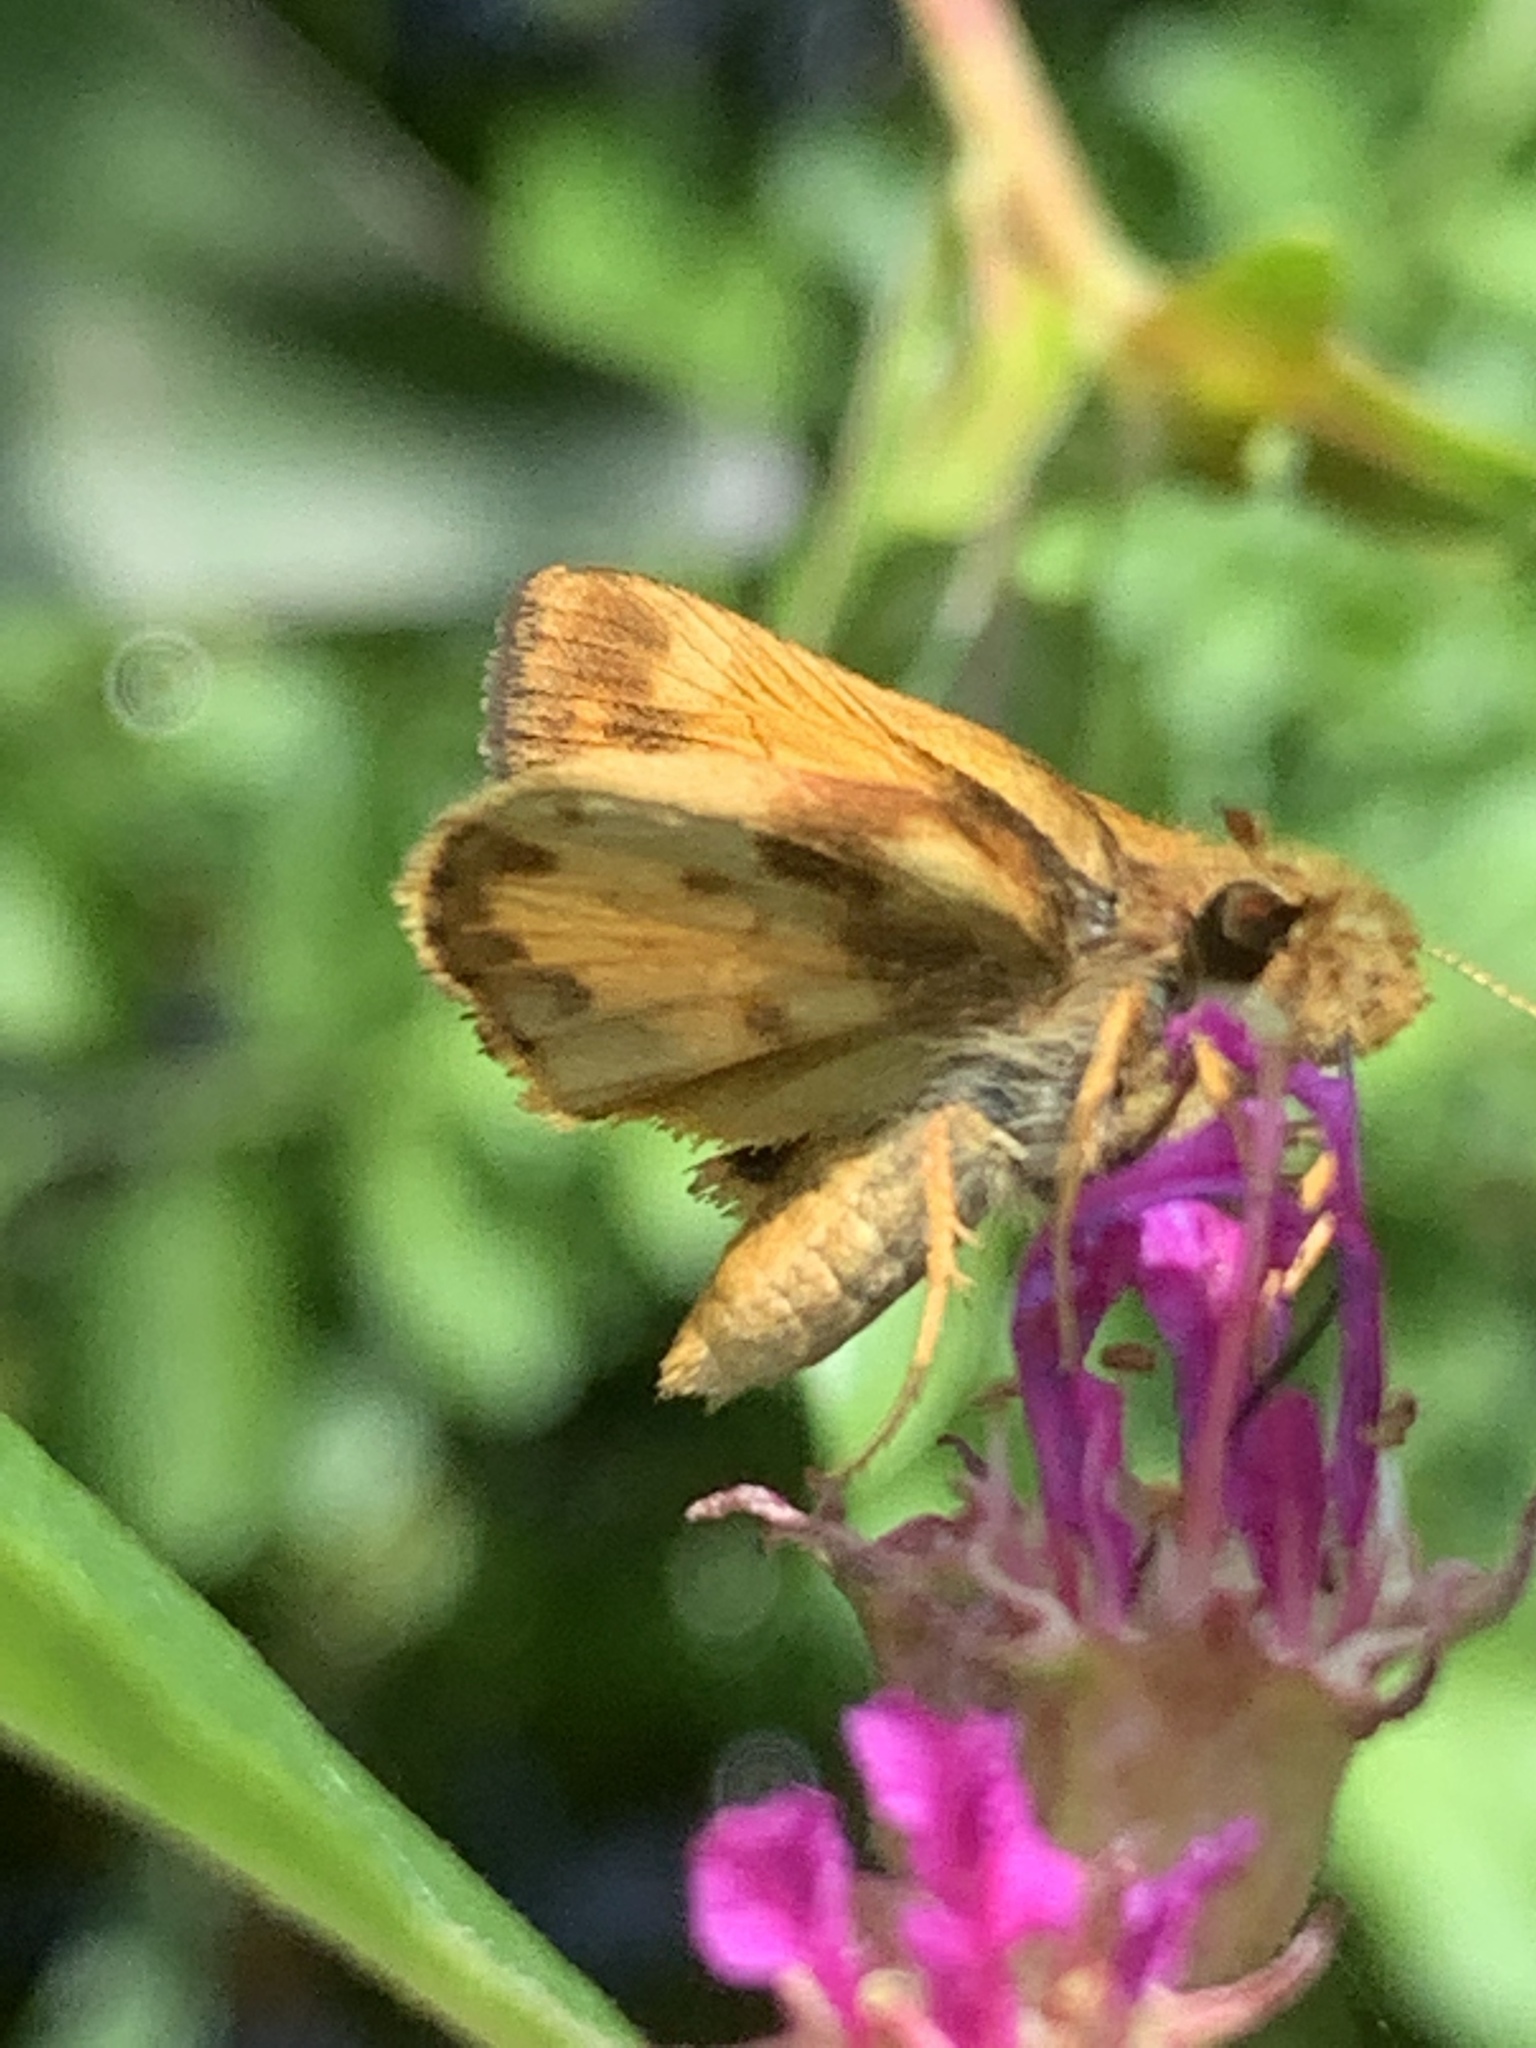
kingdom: Animalia
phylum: Arthropoda
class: Insecta
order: Lepidoptera
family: Hesperiidae
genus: Lon
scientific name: Lon zabulon
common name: Zabulon skipper
